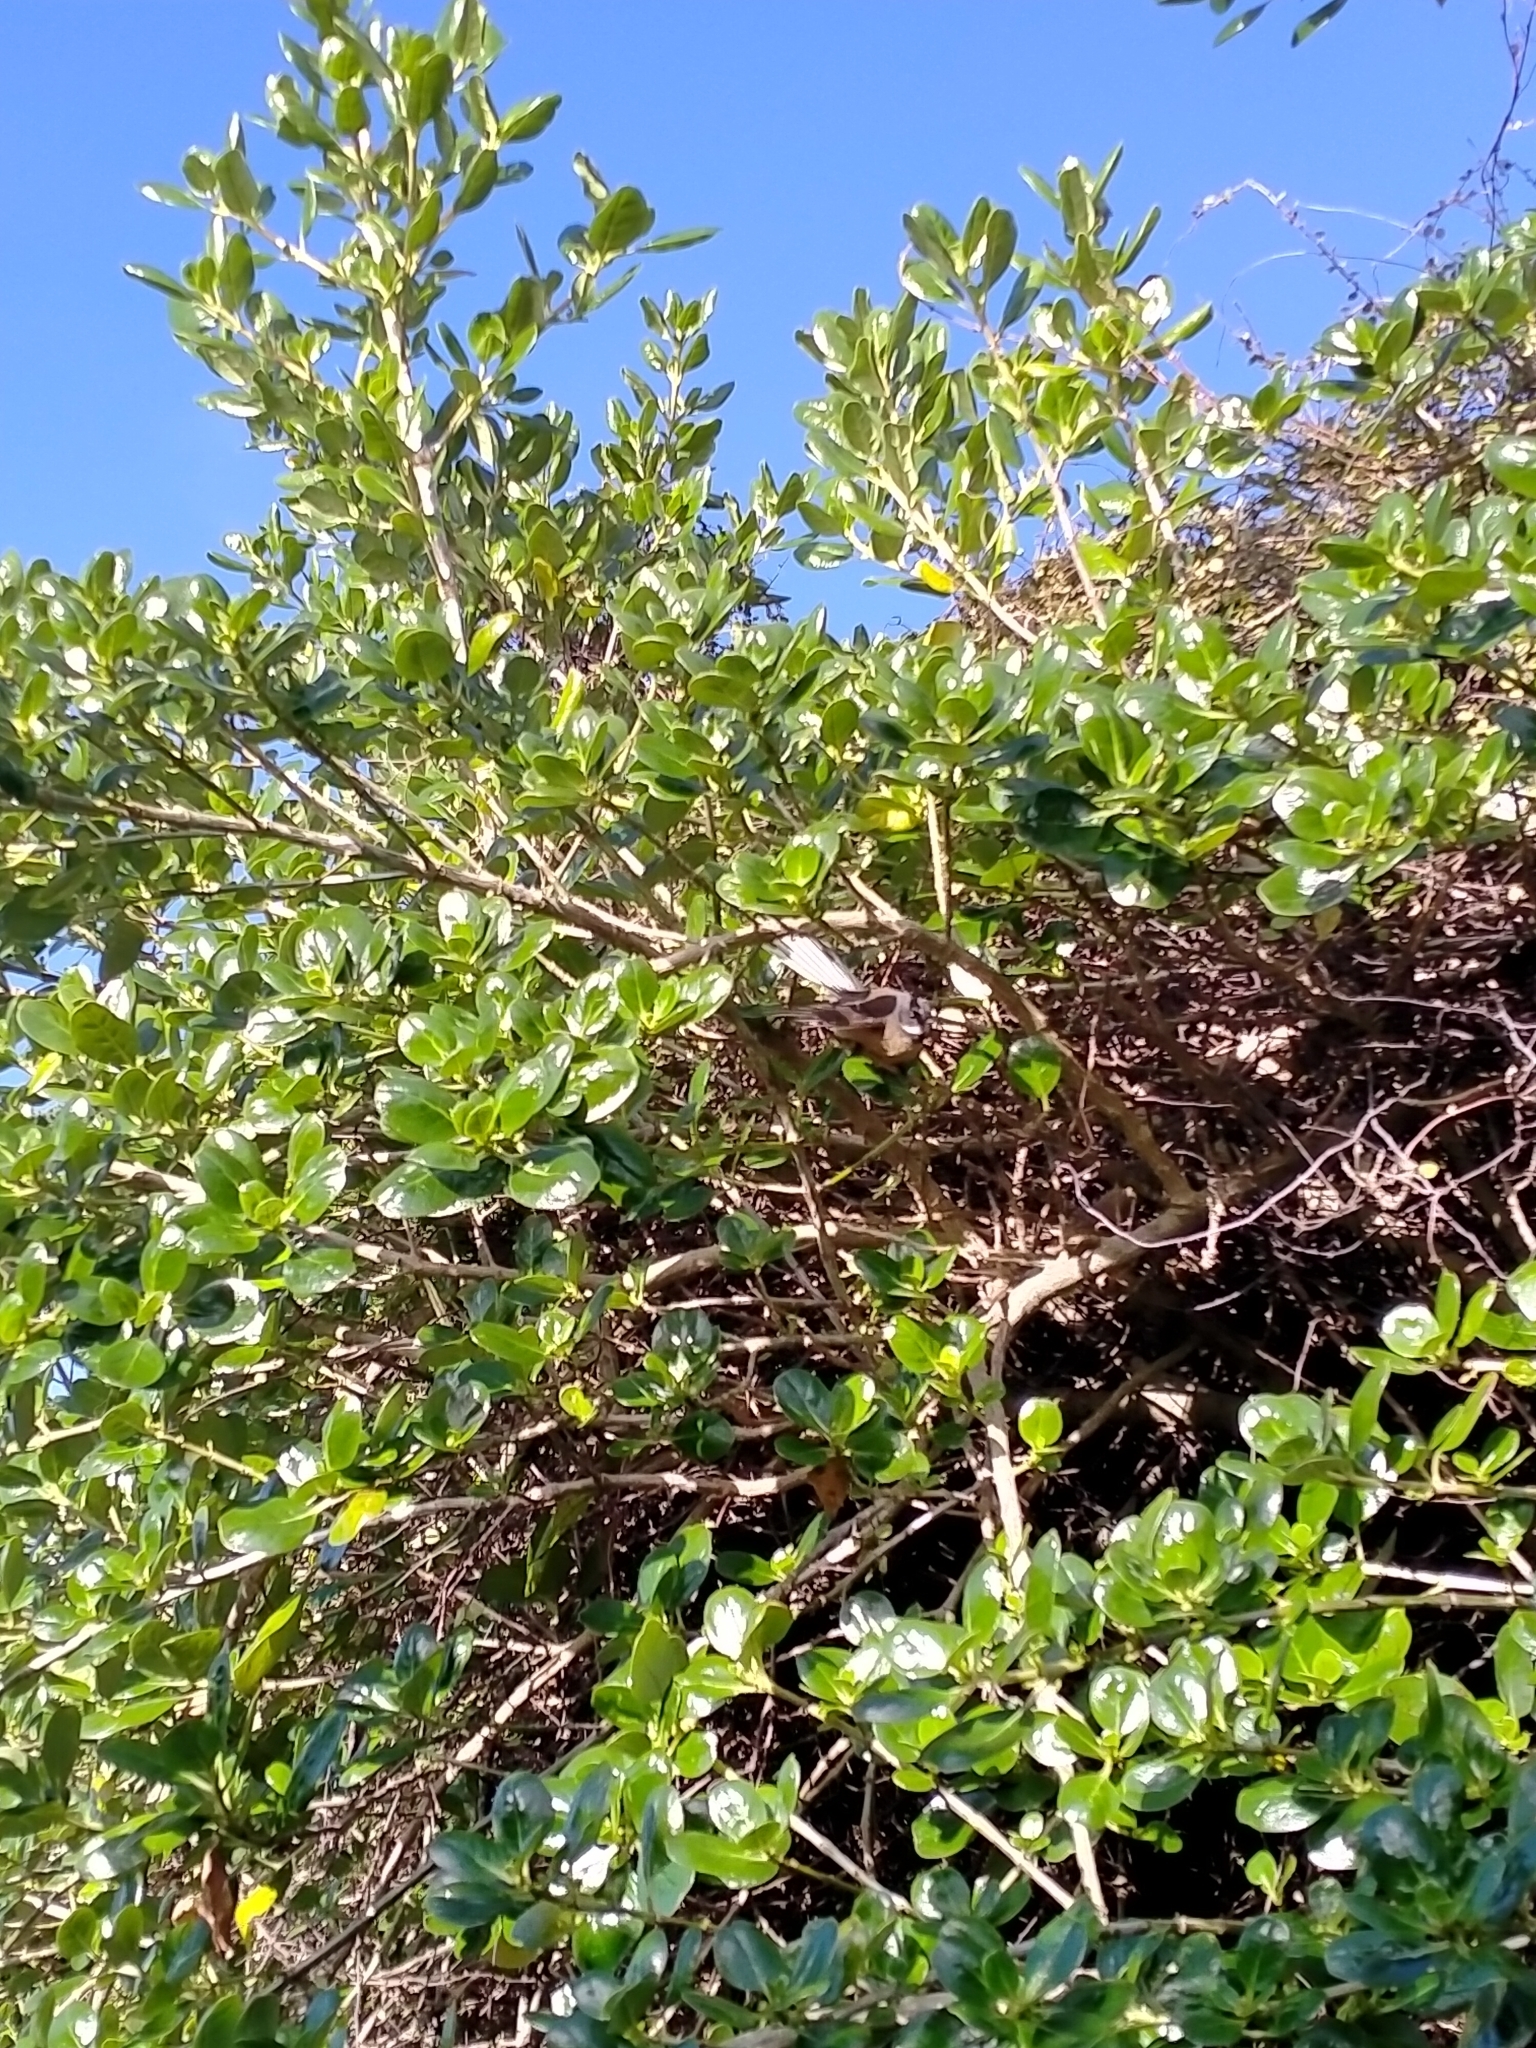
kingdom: Animalia
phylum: Chordata
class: Aves
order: Passeriformes
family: Rhipiduridae
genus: Rhipidura
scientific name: Rhipidura fuliginosa
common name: New zealand fantail
